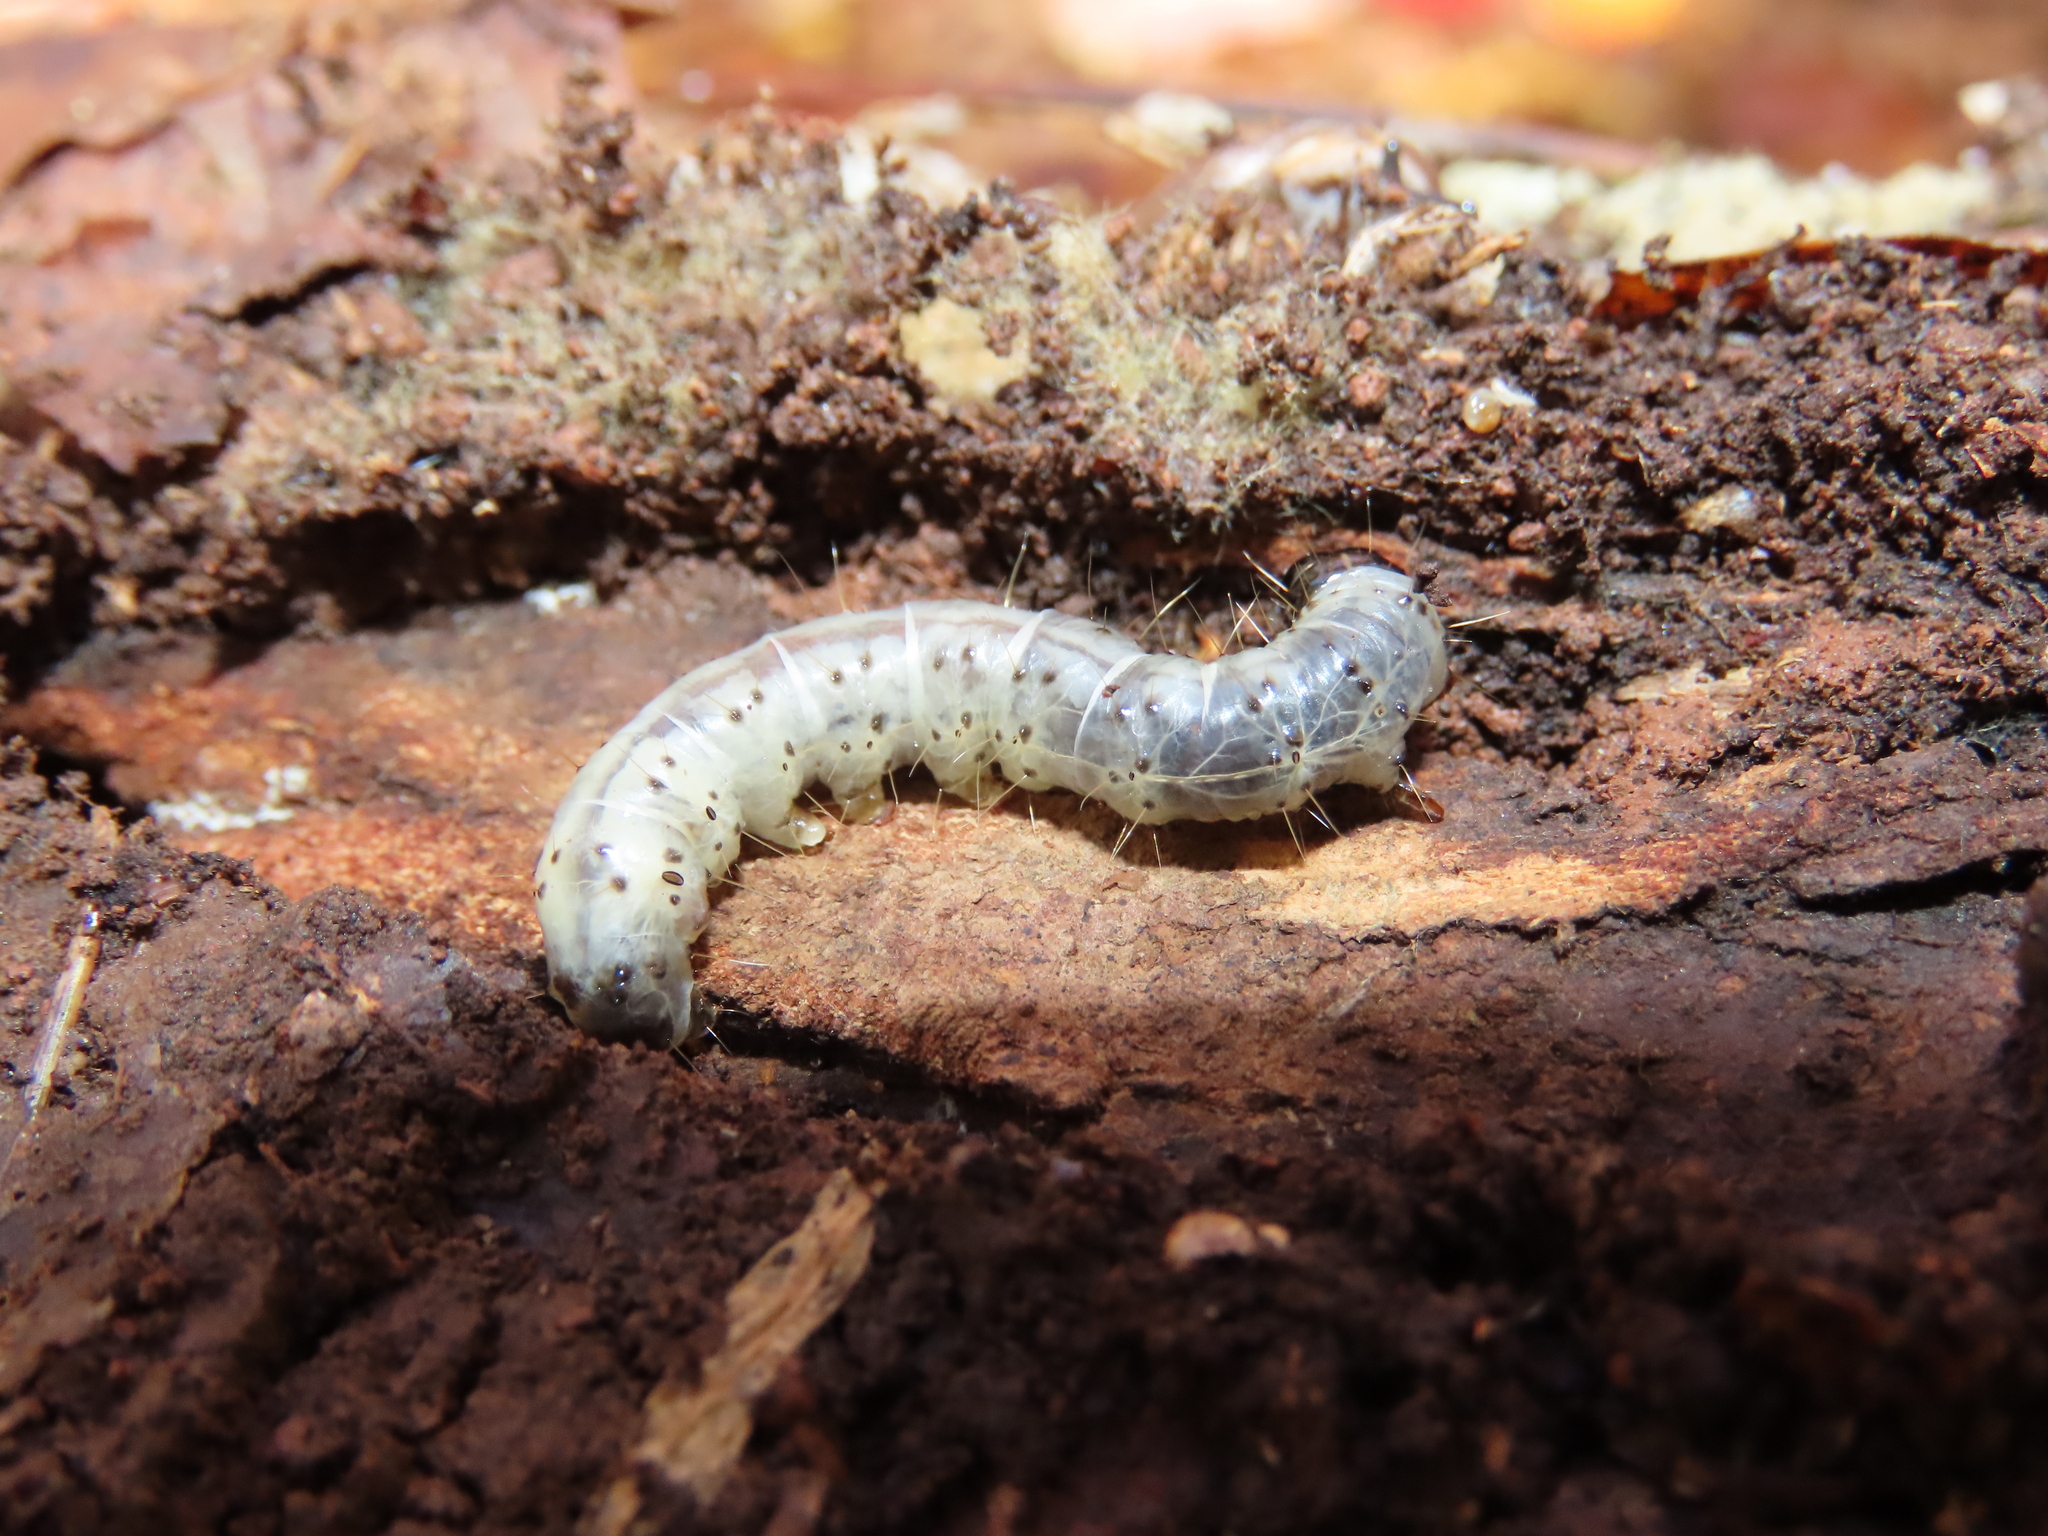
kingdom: Animalia
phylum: Arthropoda
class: Insecta
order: Lepidoptera
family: Erebidae
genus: Scolecocampa
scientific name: Scolecocampa liburna
